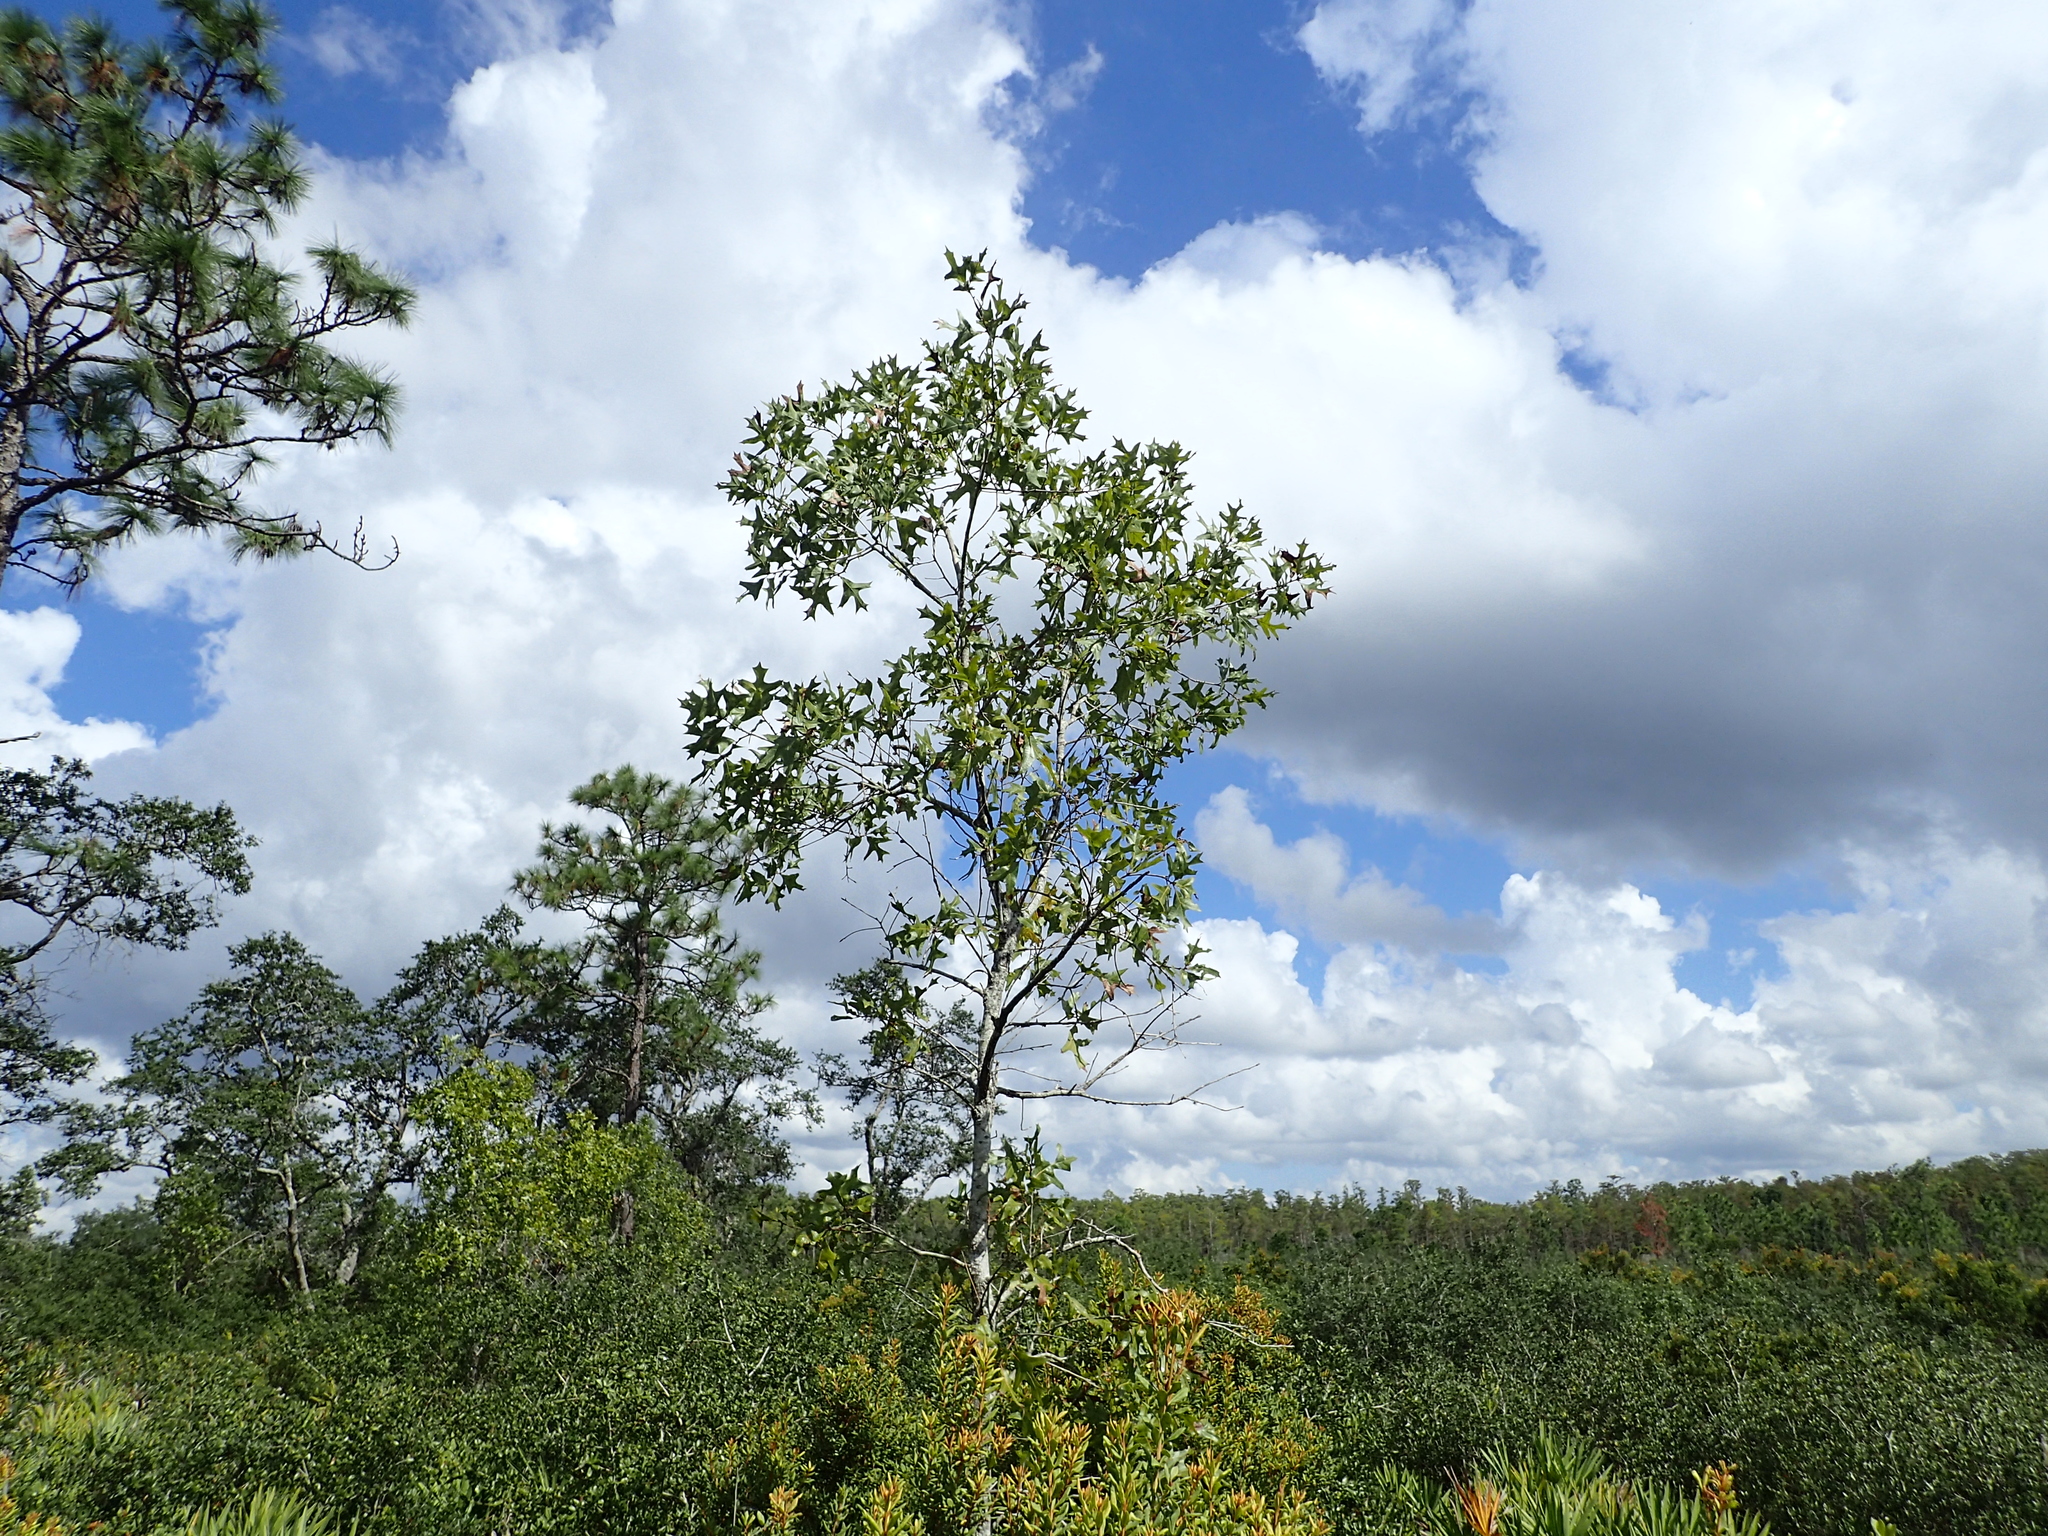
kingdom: Plantae
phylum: Tracheophyta
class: Magnoliopsida
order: Fagales
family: Fagaceae
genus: Quercus
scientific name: Quercus laevis
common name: Turkey oak
